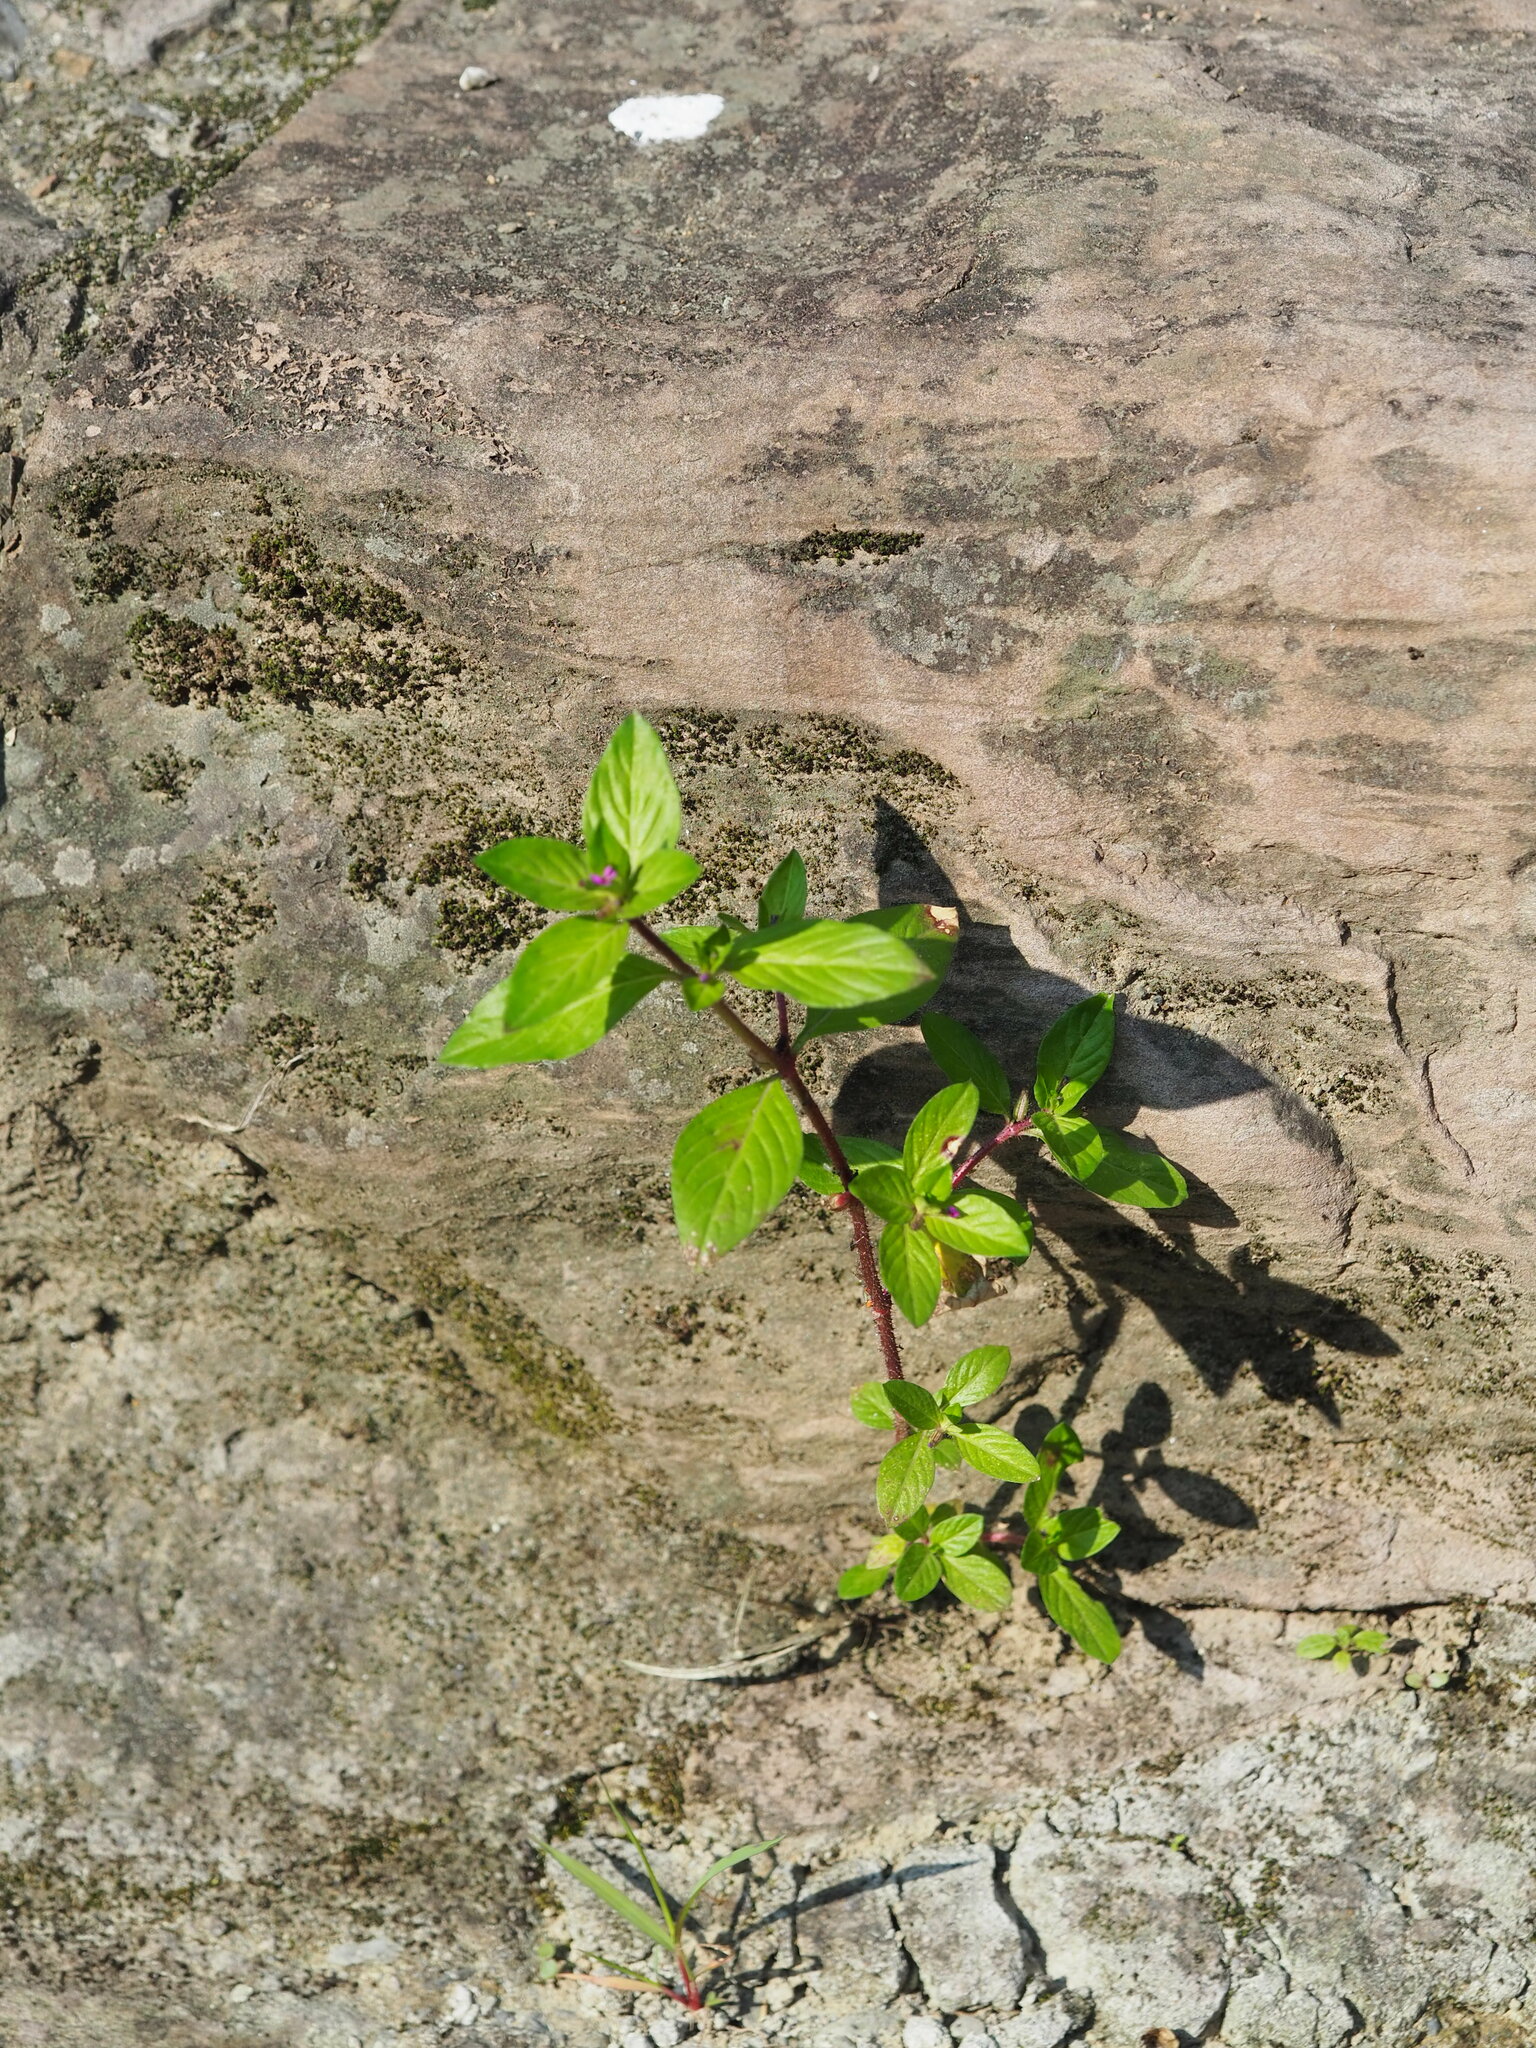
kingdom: Plantae
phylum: Tracheophyta
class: Magnoliopsida
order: Myrtales
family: Lythraceae
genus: Cuphea
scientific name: Cuphea carthagenensis
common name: Colombian waxweed
